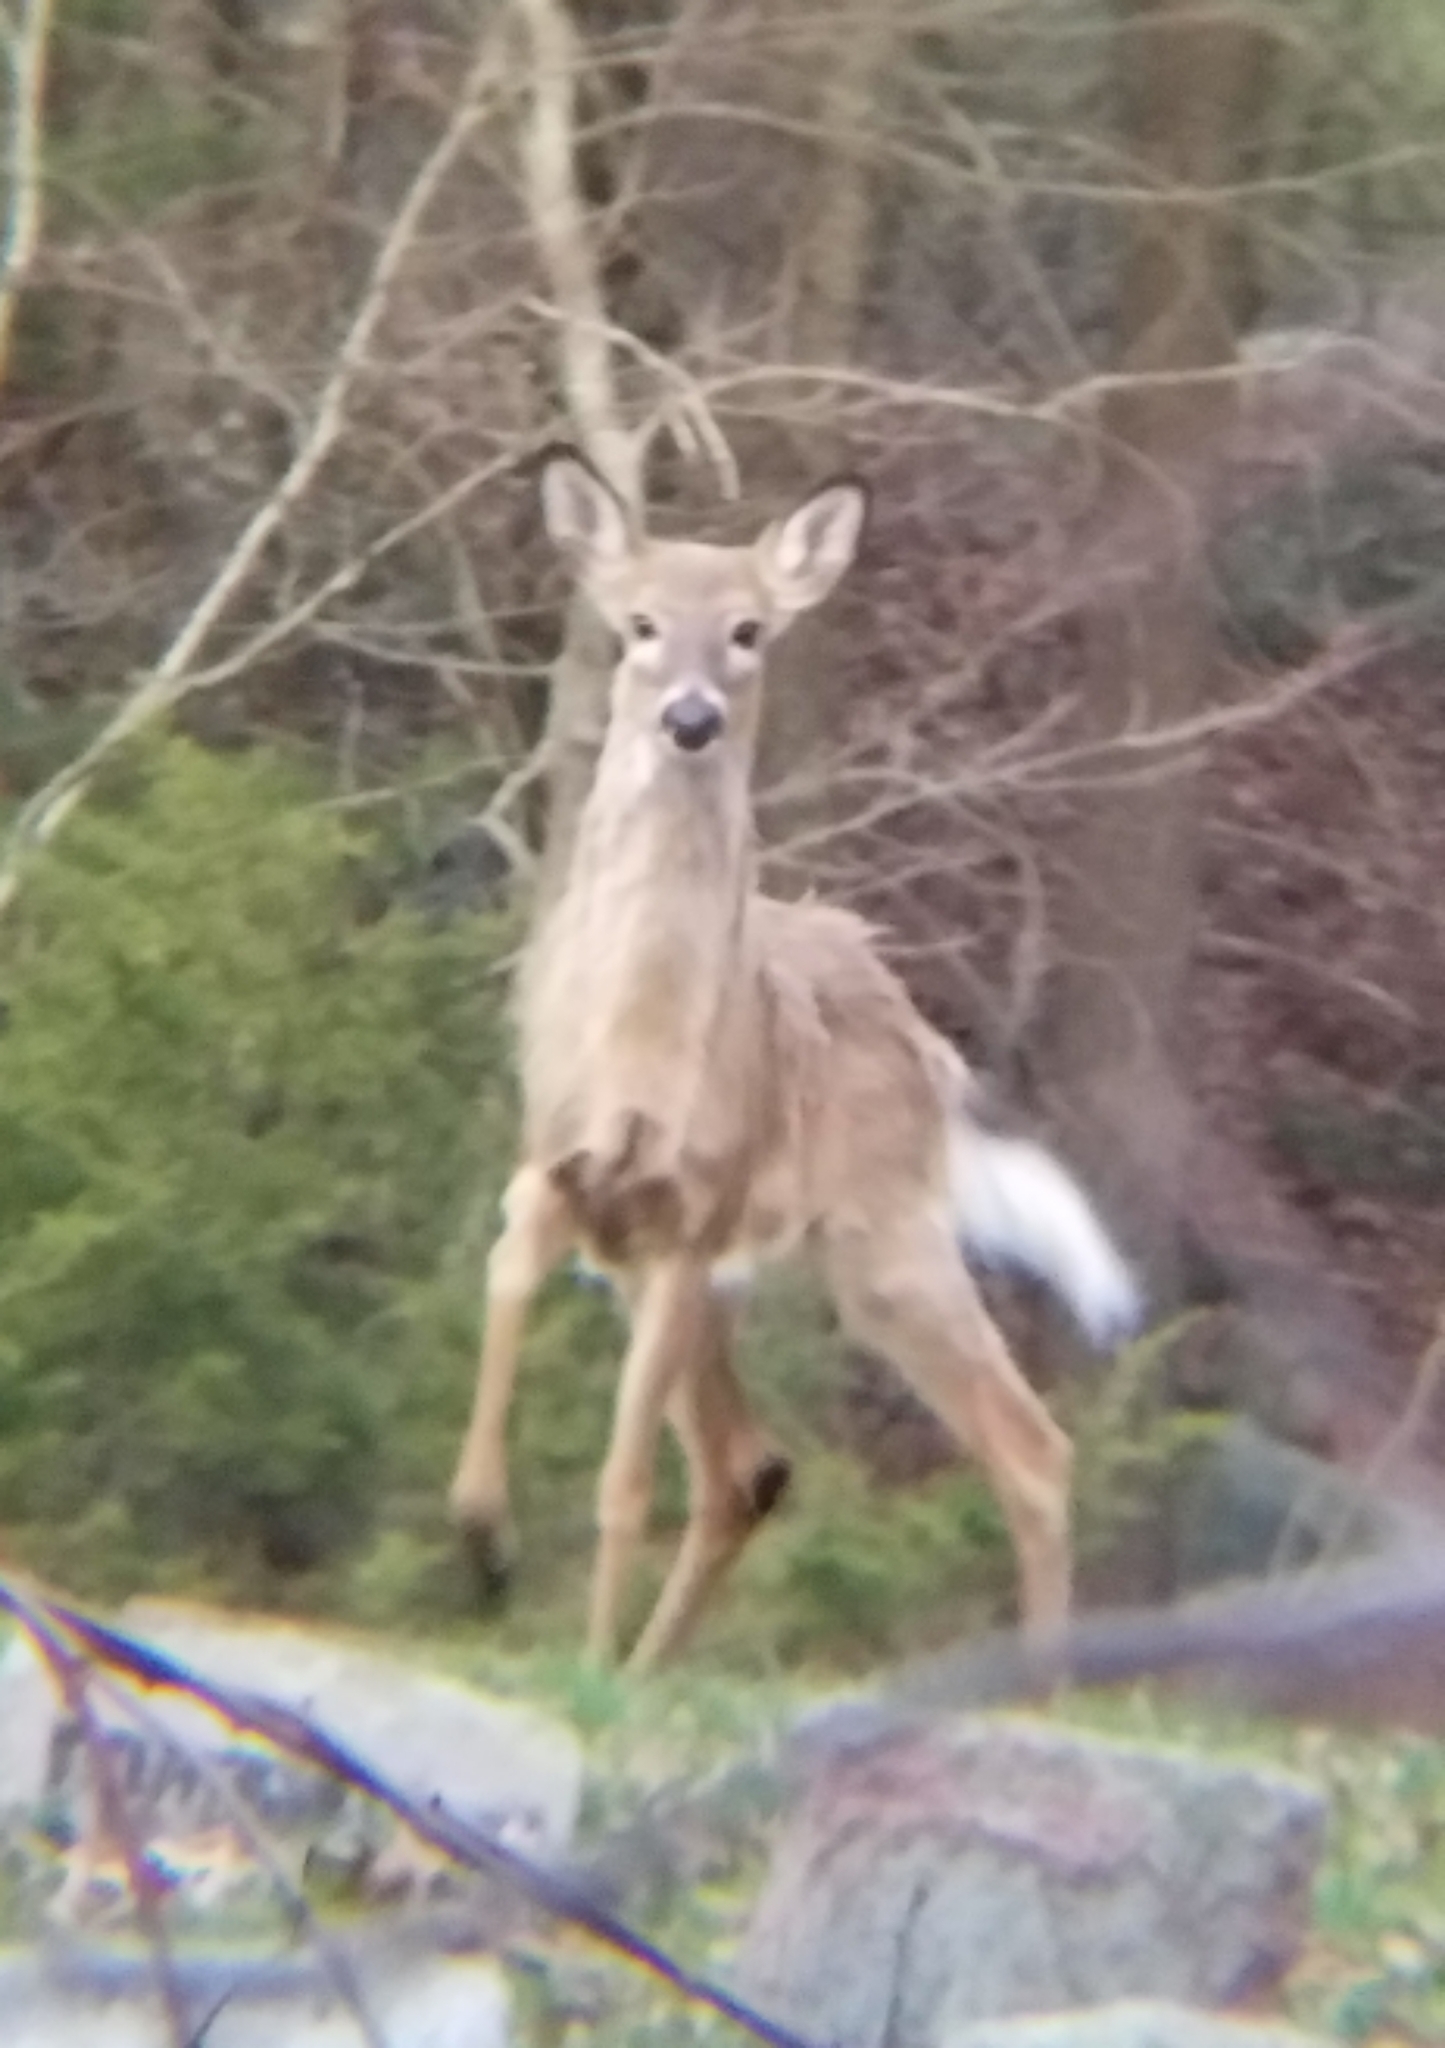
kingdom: Animalia
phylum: Chordata
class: Mammalia
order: Artiodactyla
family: Cervidae
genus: Odocoileus
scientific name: Odocoileus virginianus
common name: White-tailed deer
